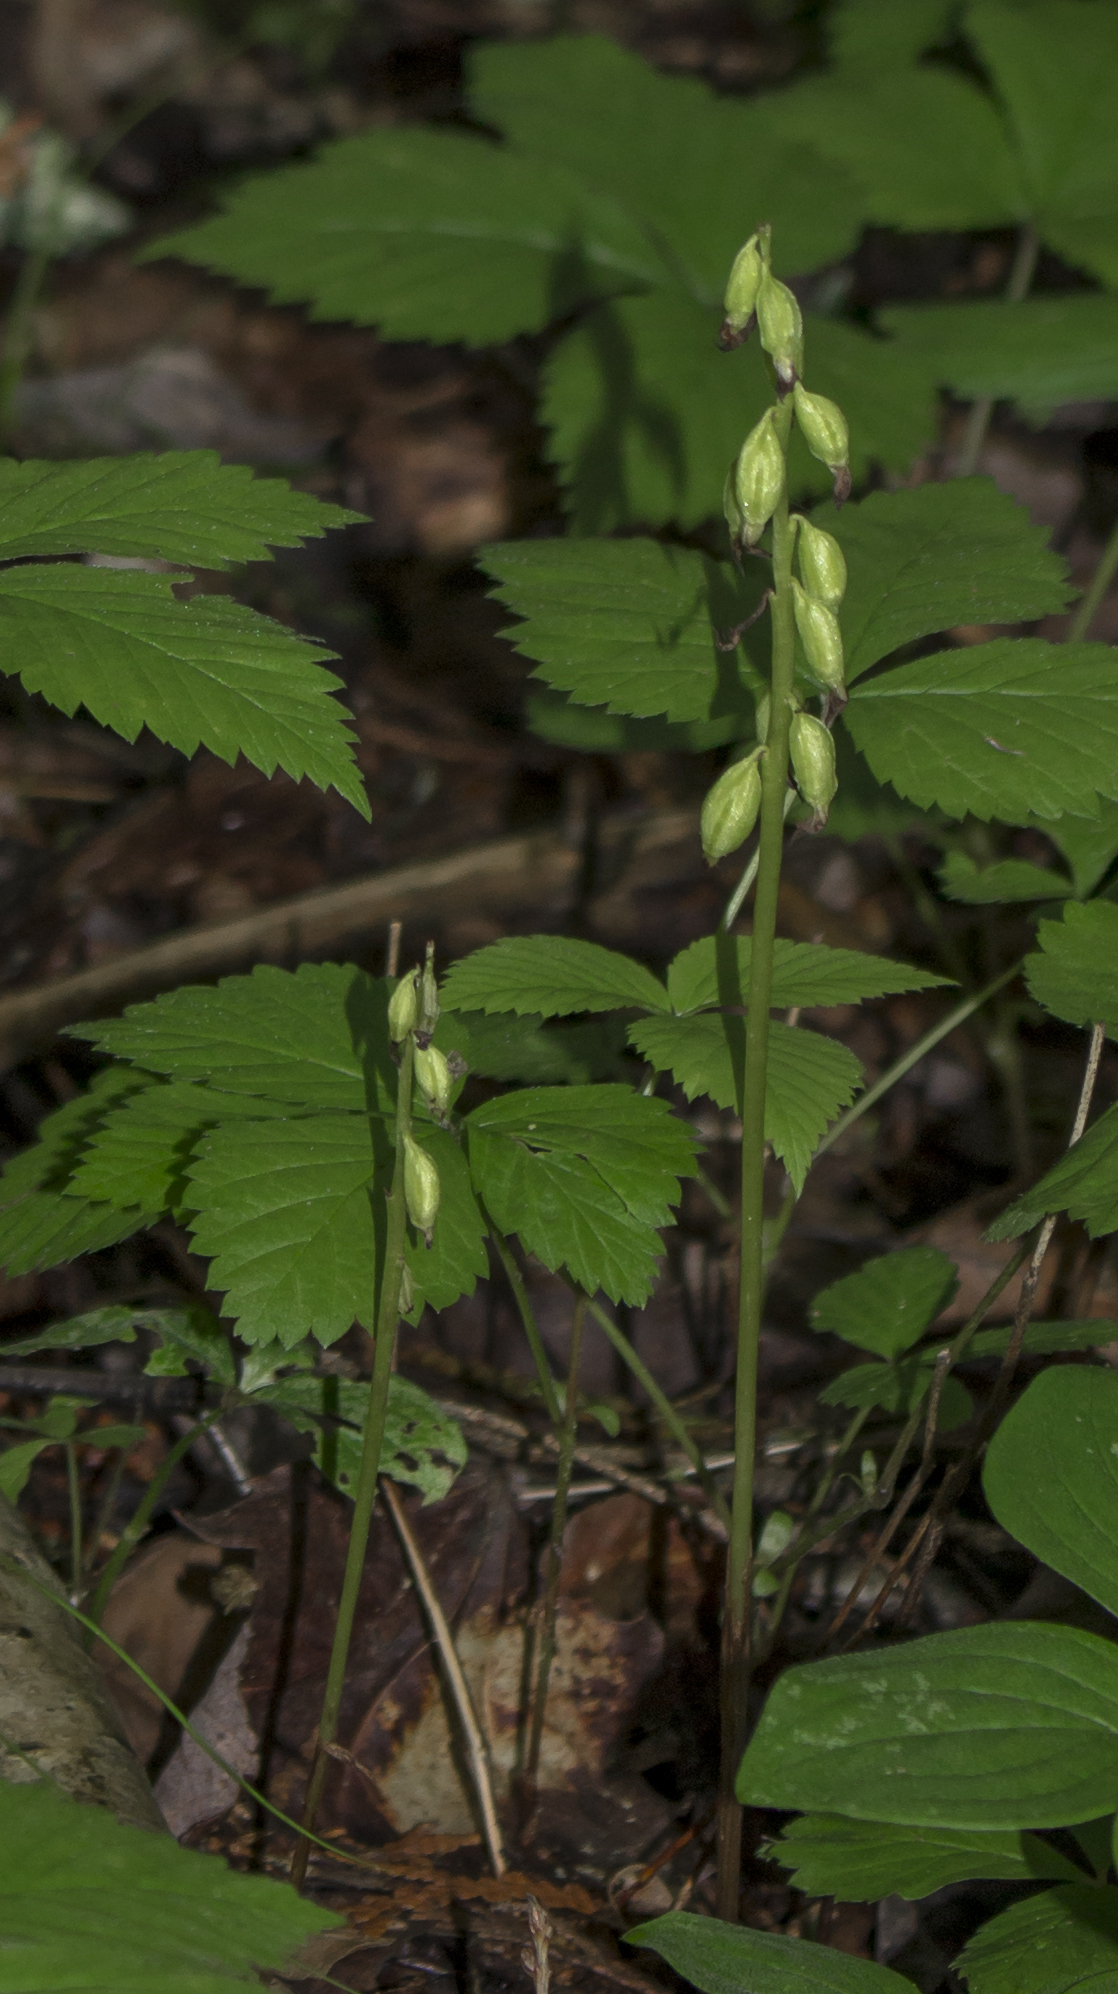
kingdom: Plantae
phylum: Tracheophyta
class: Liliopsida
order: Asparagales
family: Orchidaceae
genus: Corallorhiza
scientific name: Corallorhiza trifida
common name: Yellow coralroot
